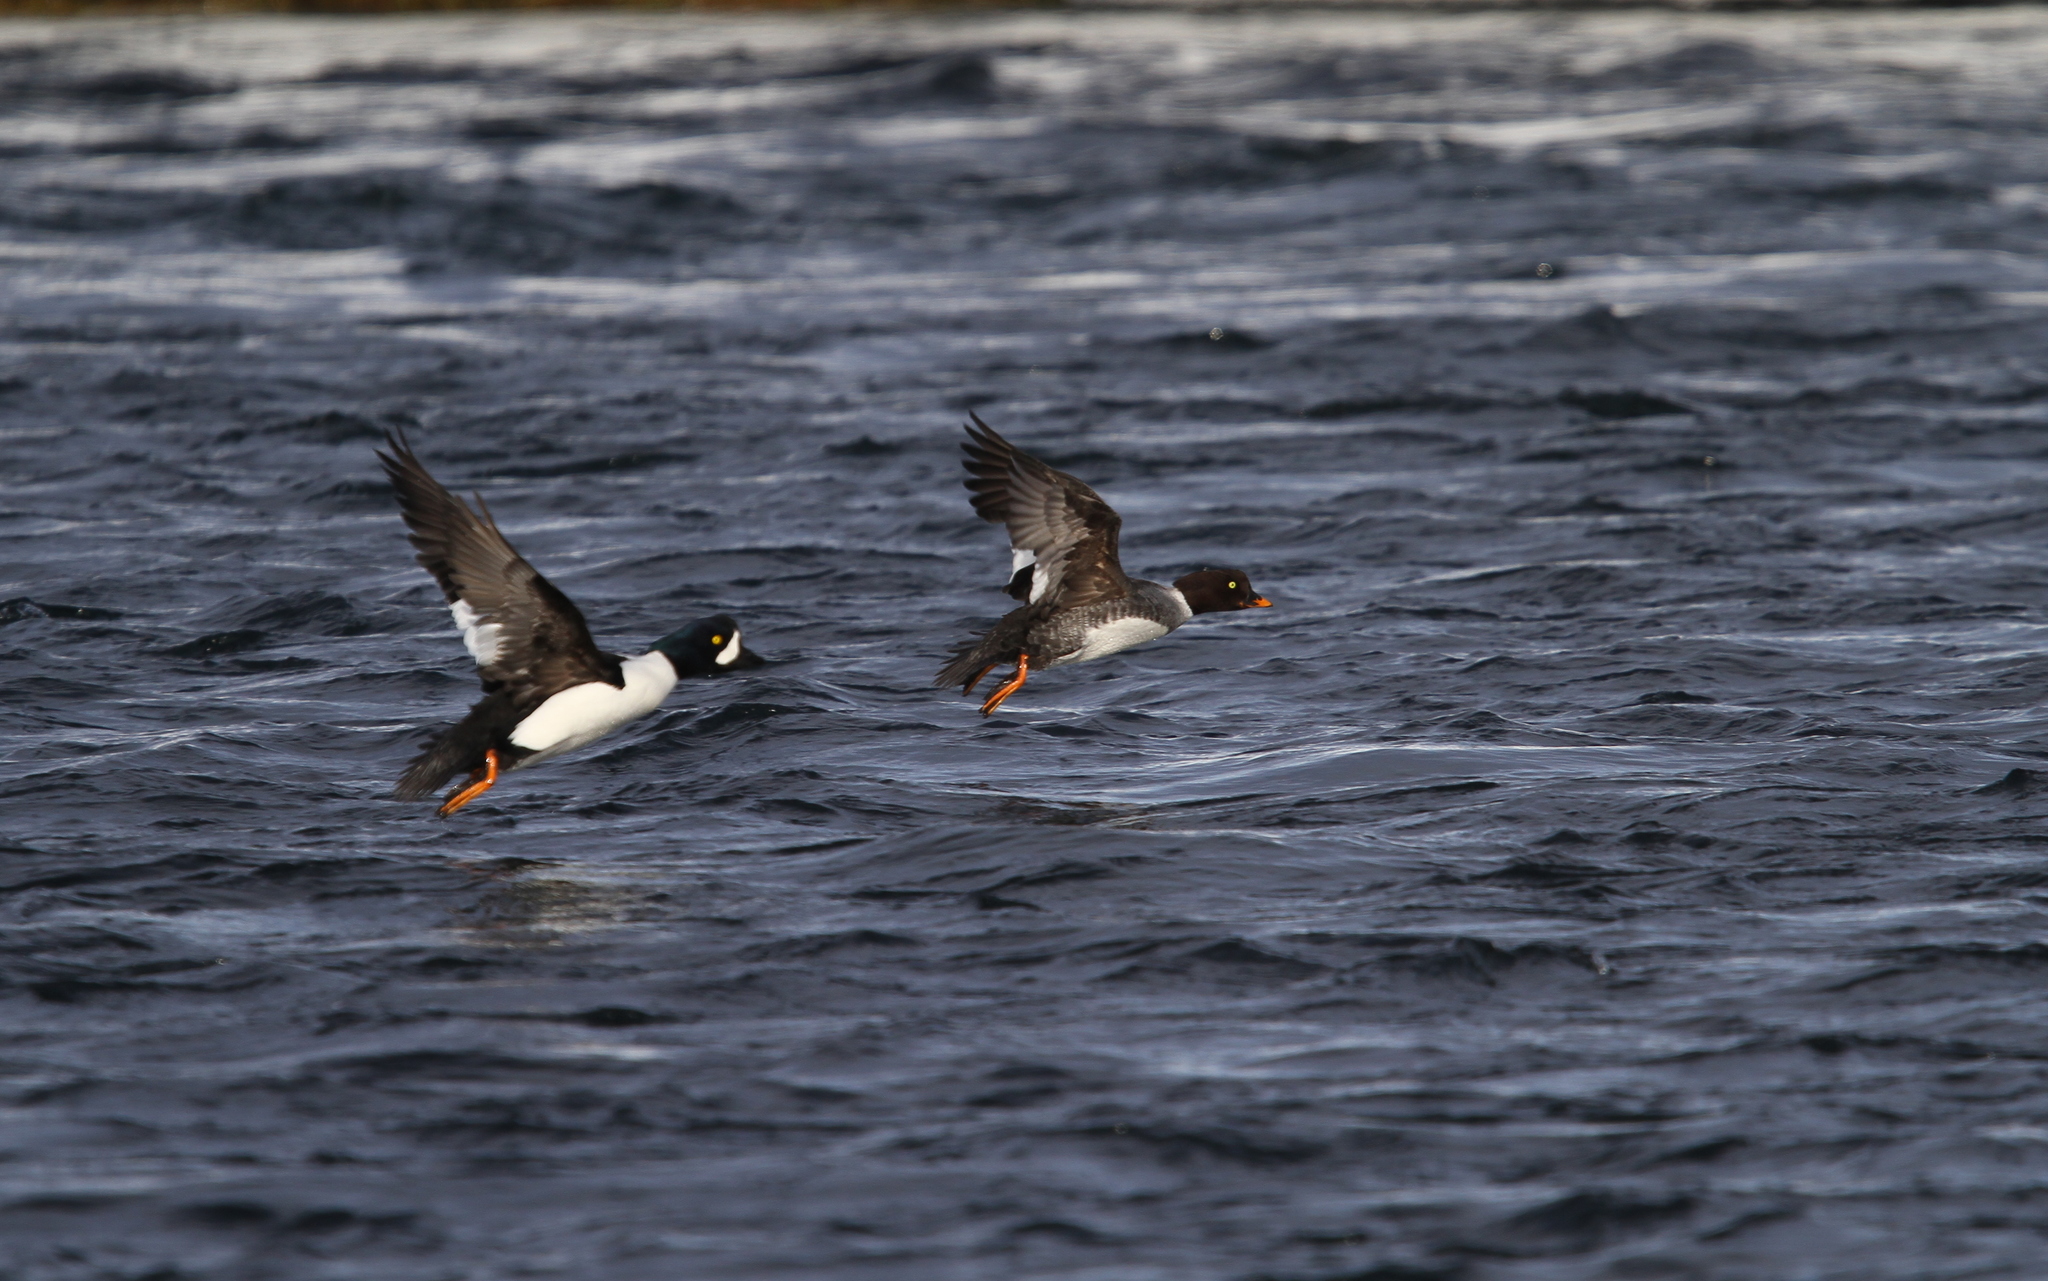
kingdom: Animalia
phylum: Chordata
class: Aves
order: Anseriformes
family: Anatidae
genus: Bucephala
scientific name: Bucephala islandica
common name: Barrow's goldeneye
